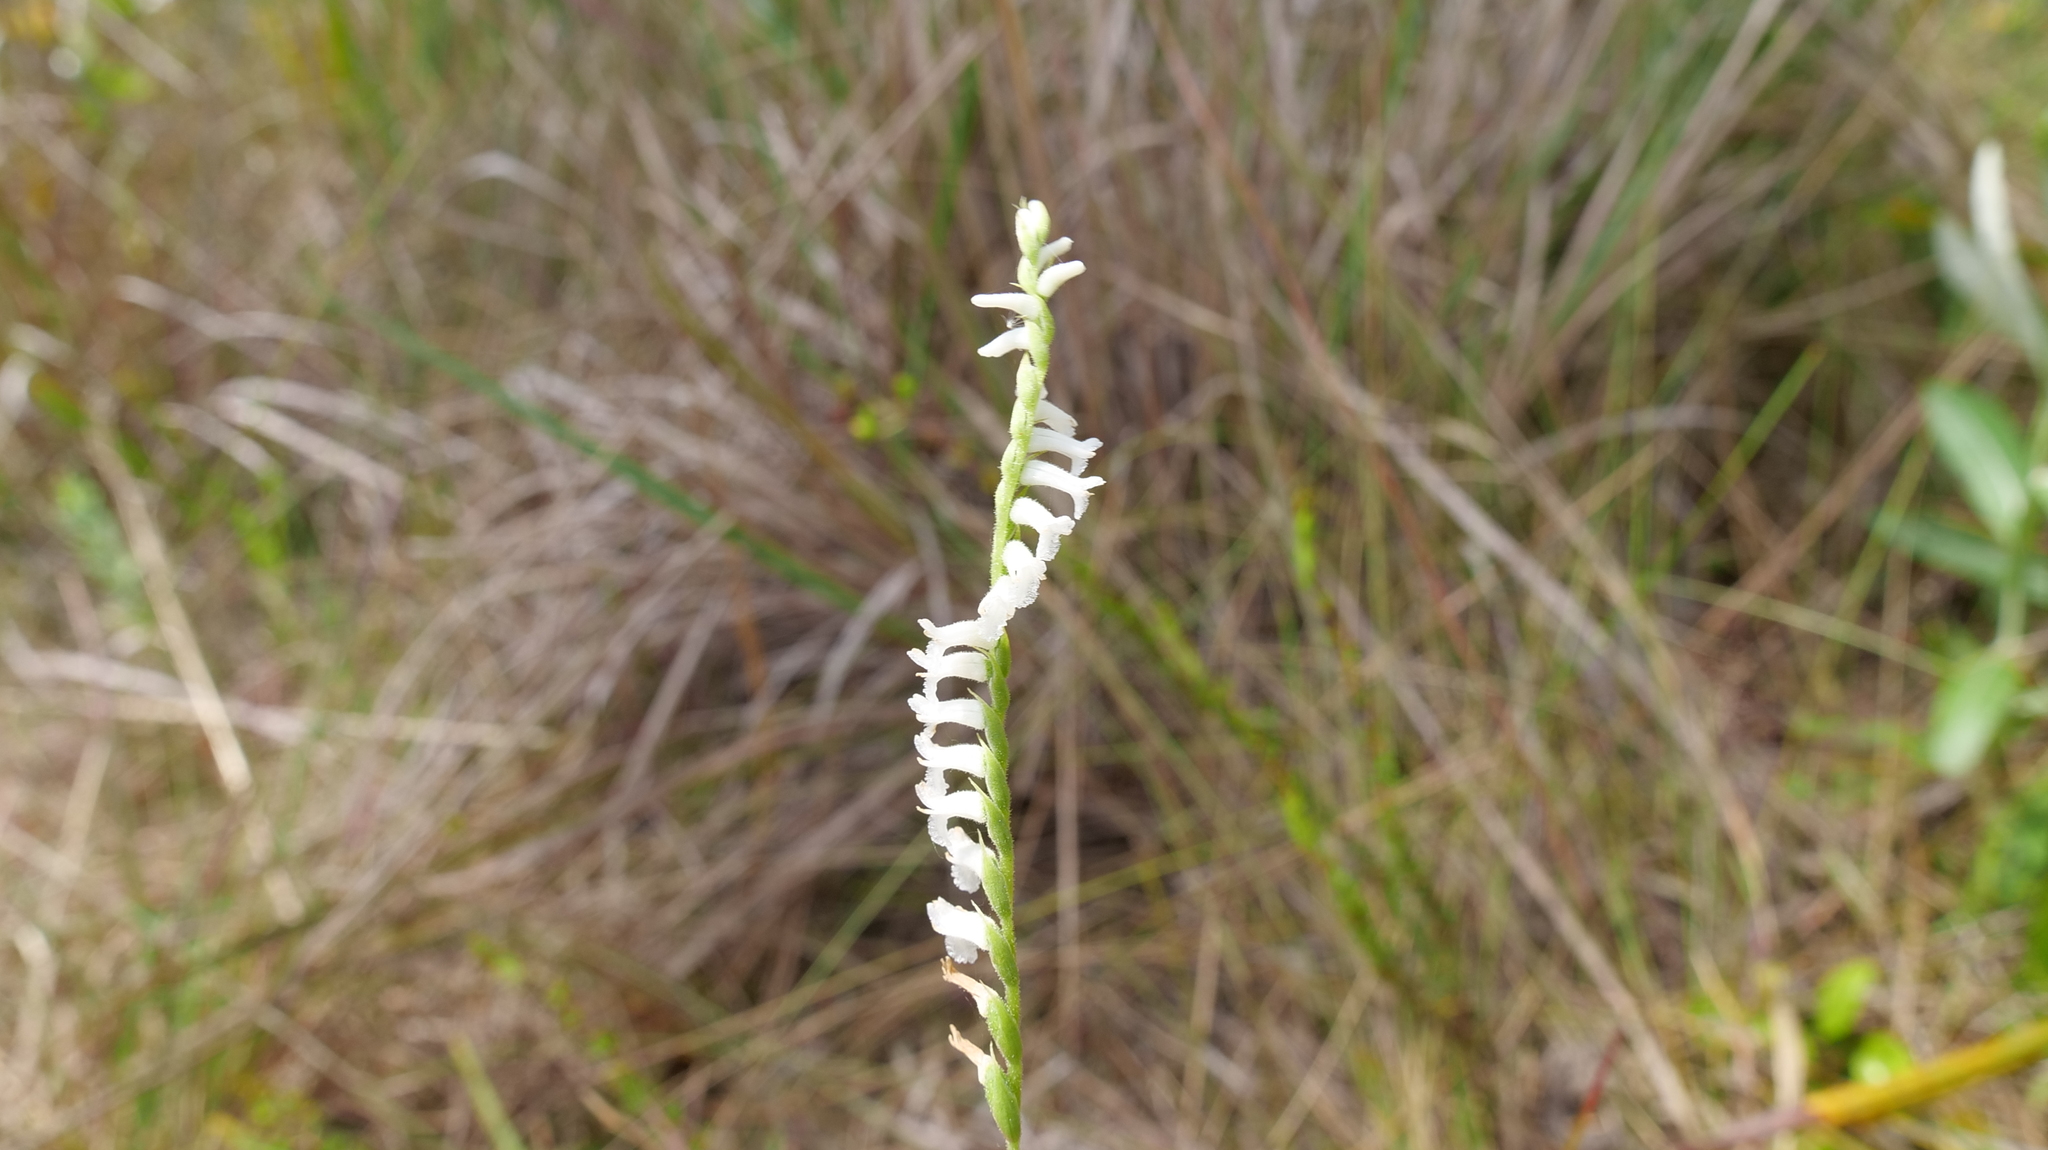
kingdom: Plantae
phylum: Tracheophyta
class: Liliopsida
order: Asparagales
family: Orchidaceae
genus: Spiranthes
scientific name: Spiranthes praecox
